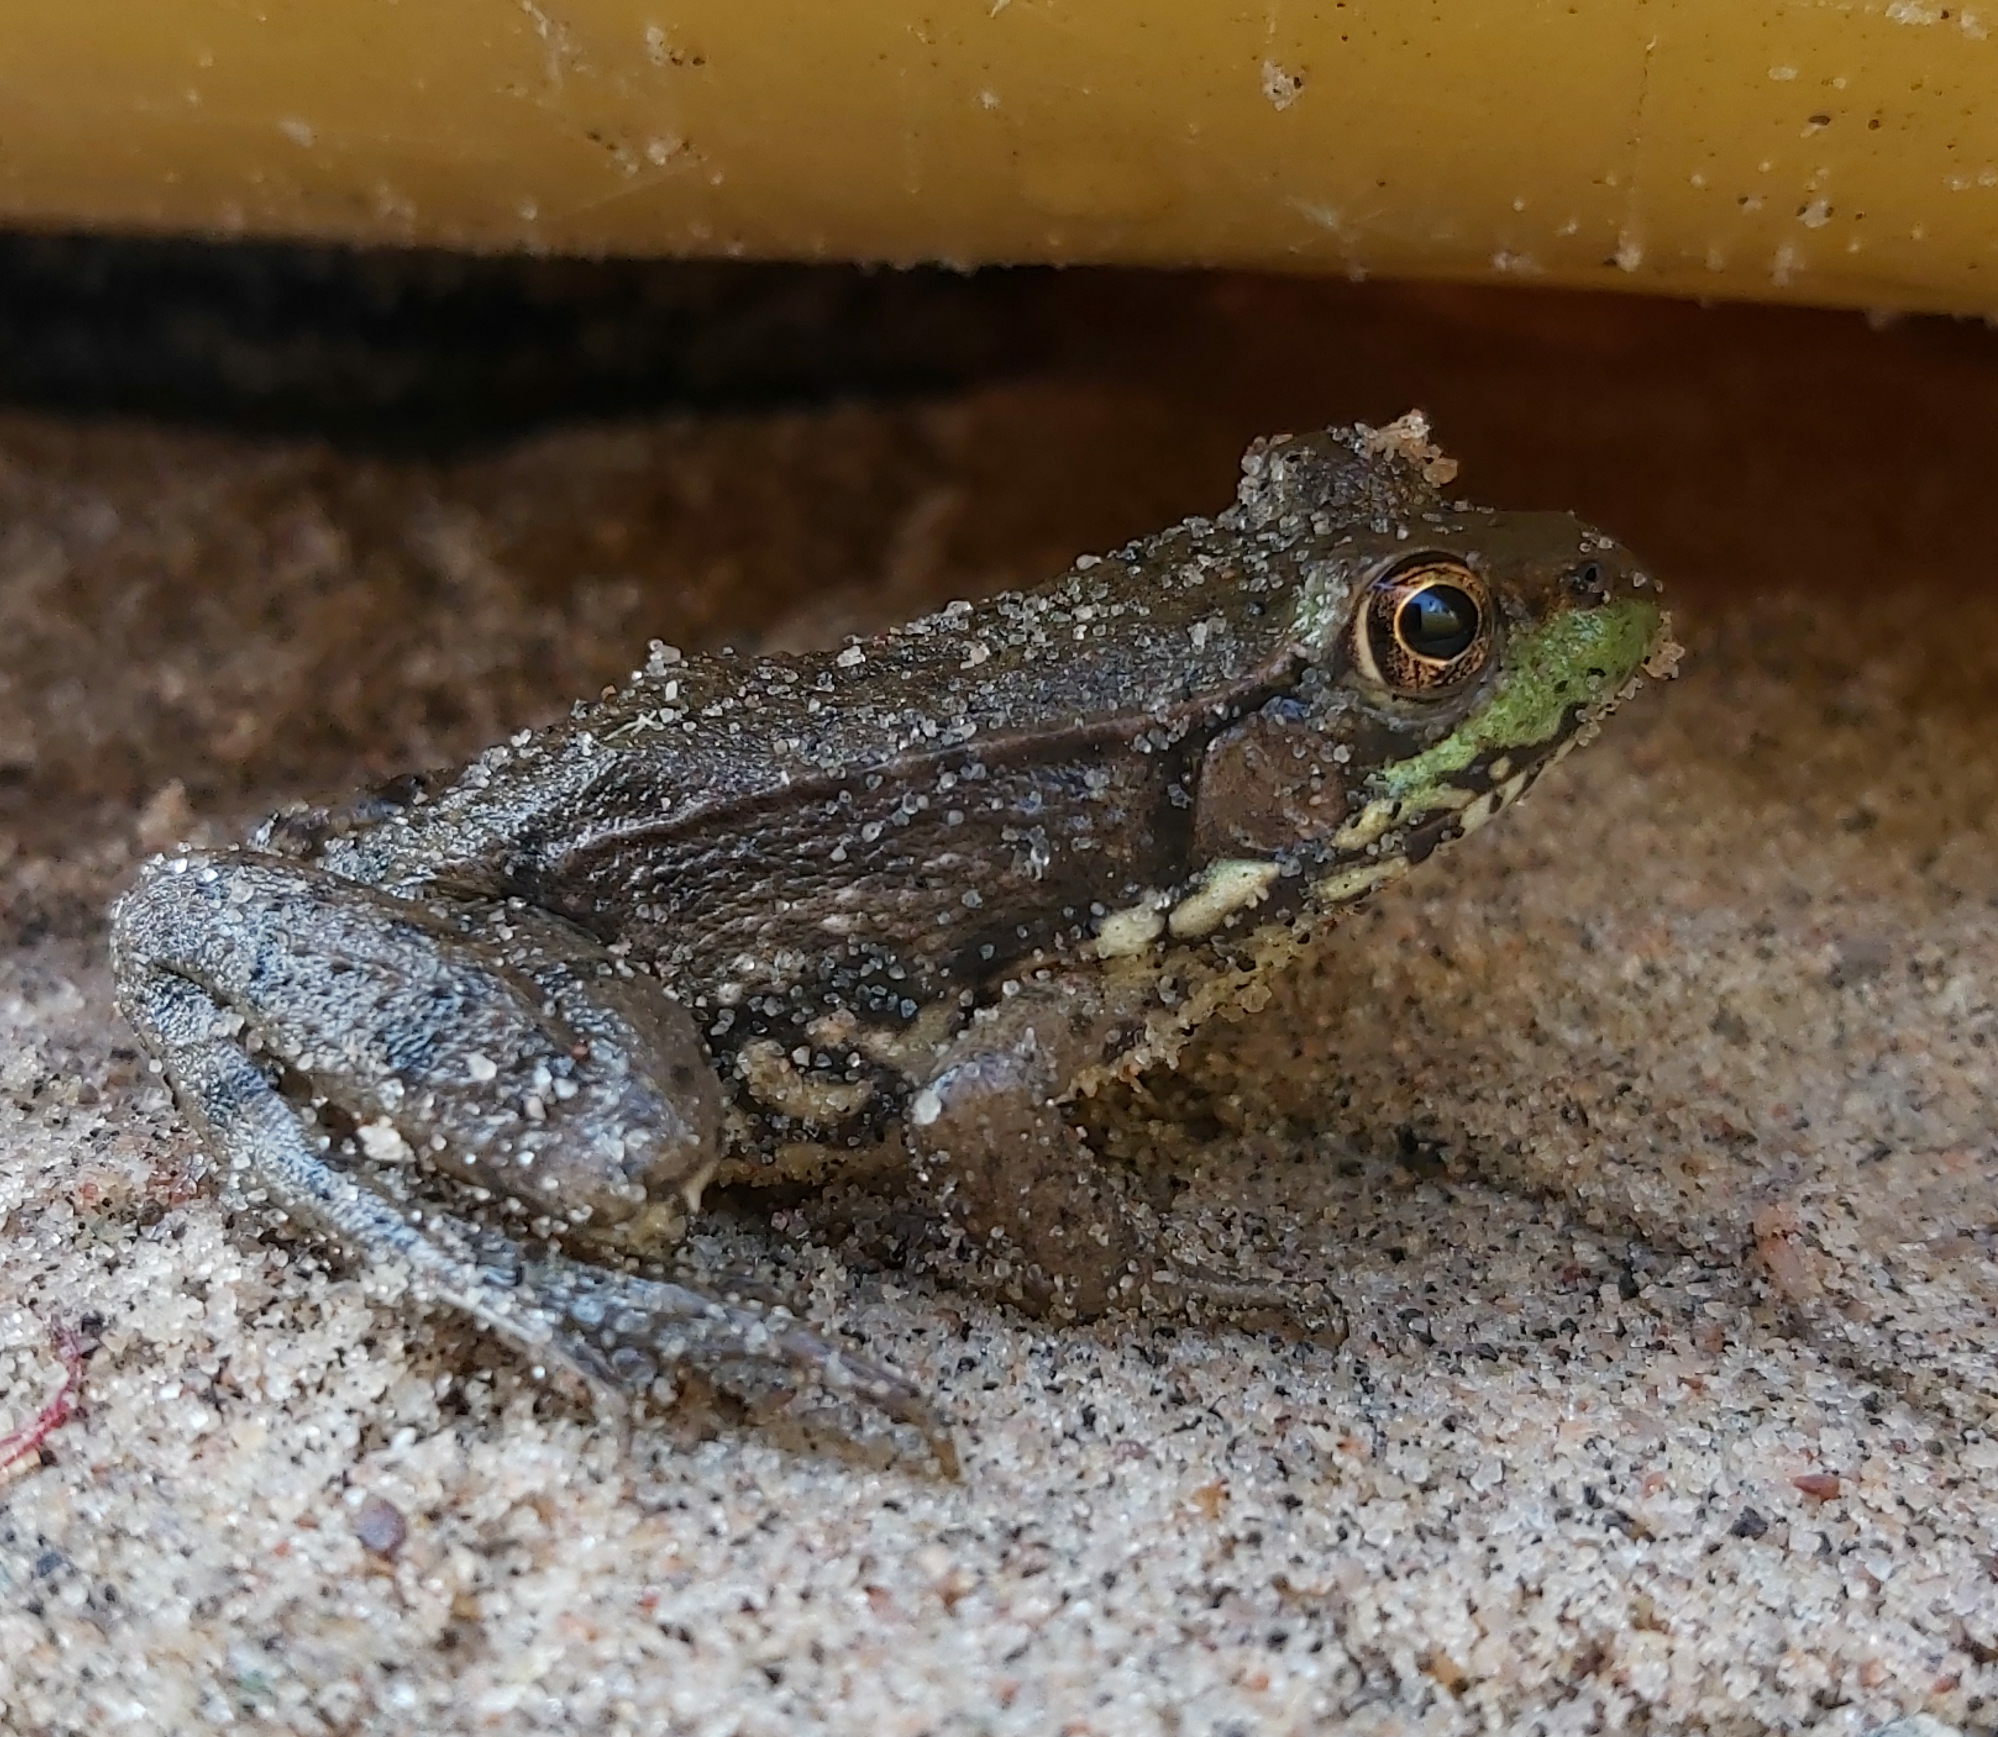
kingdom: Animalia
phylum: Chordata
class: Amphibia
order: Anura
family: Ranidae
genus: Lithobates
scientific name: Lithobates clamitans
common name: Green frog
